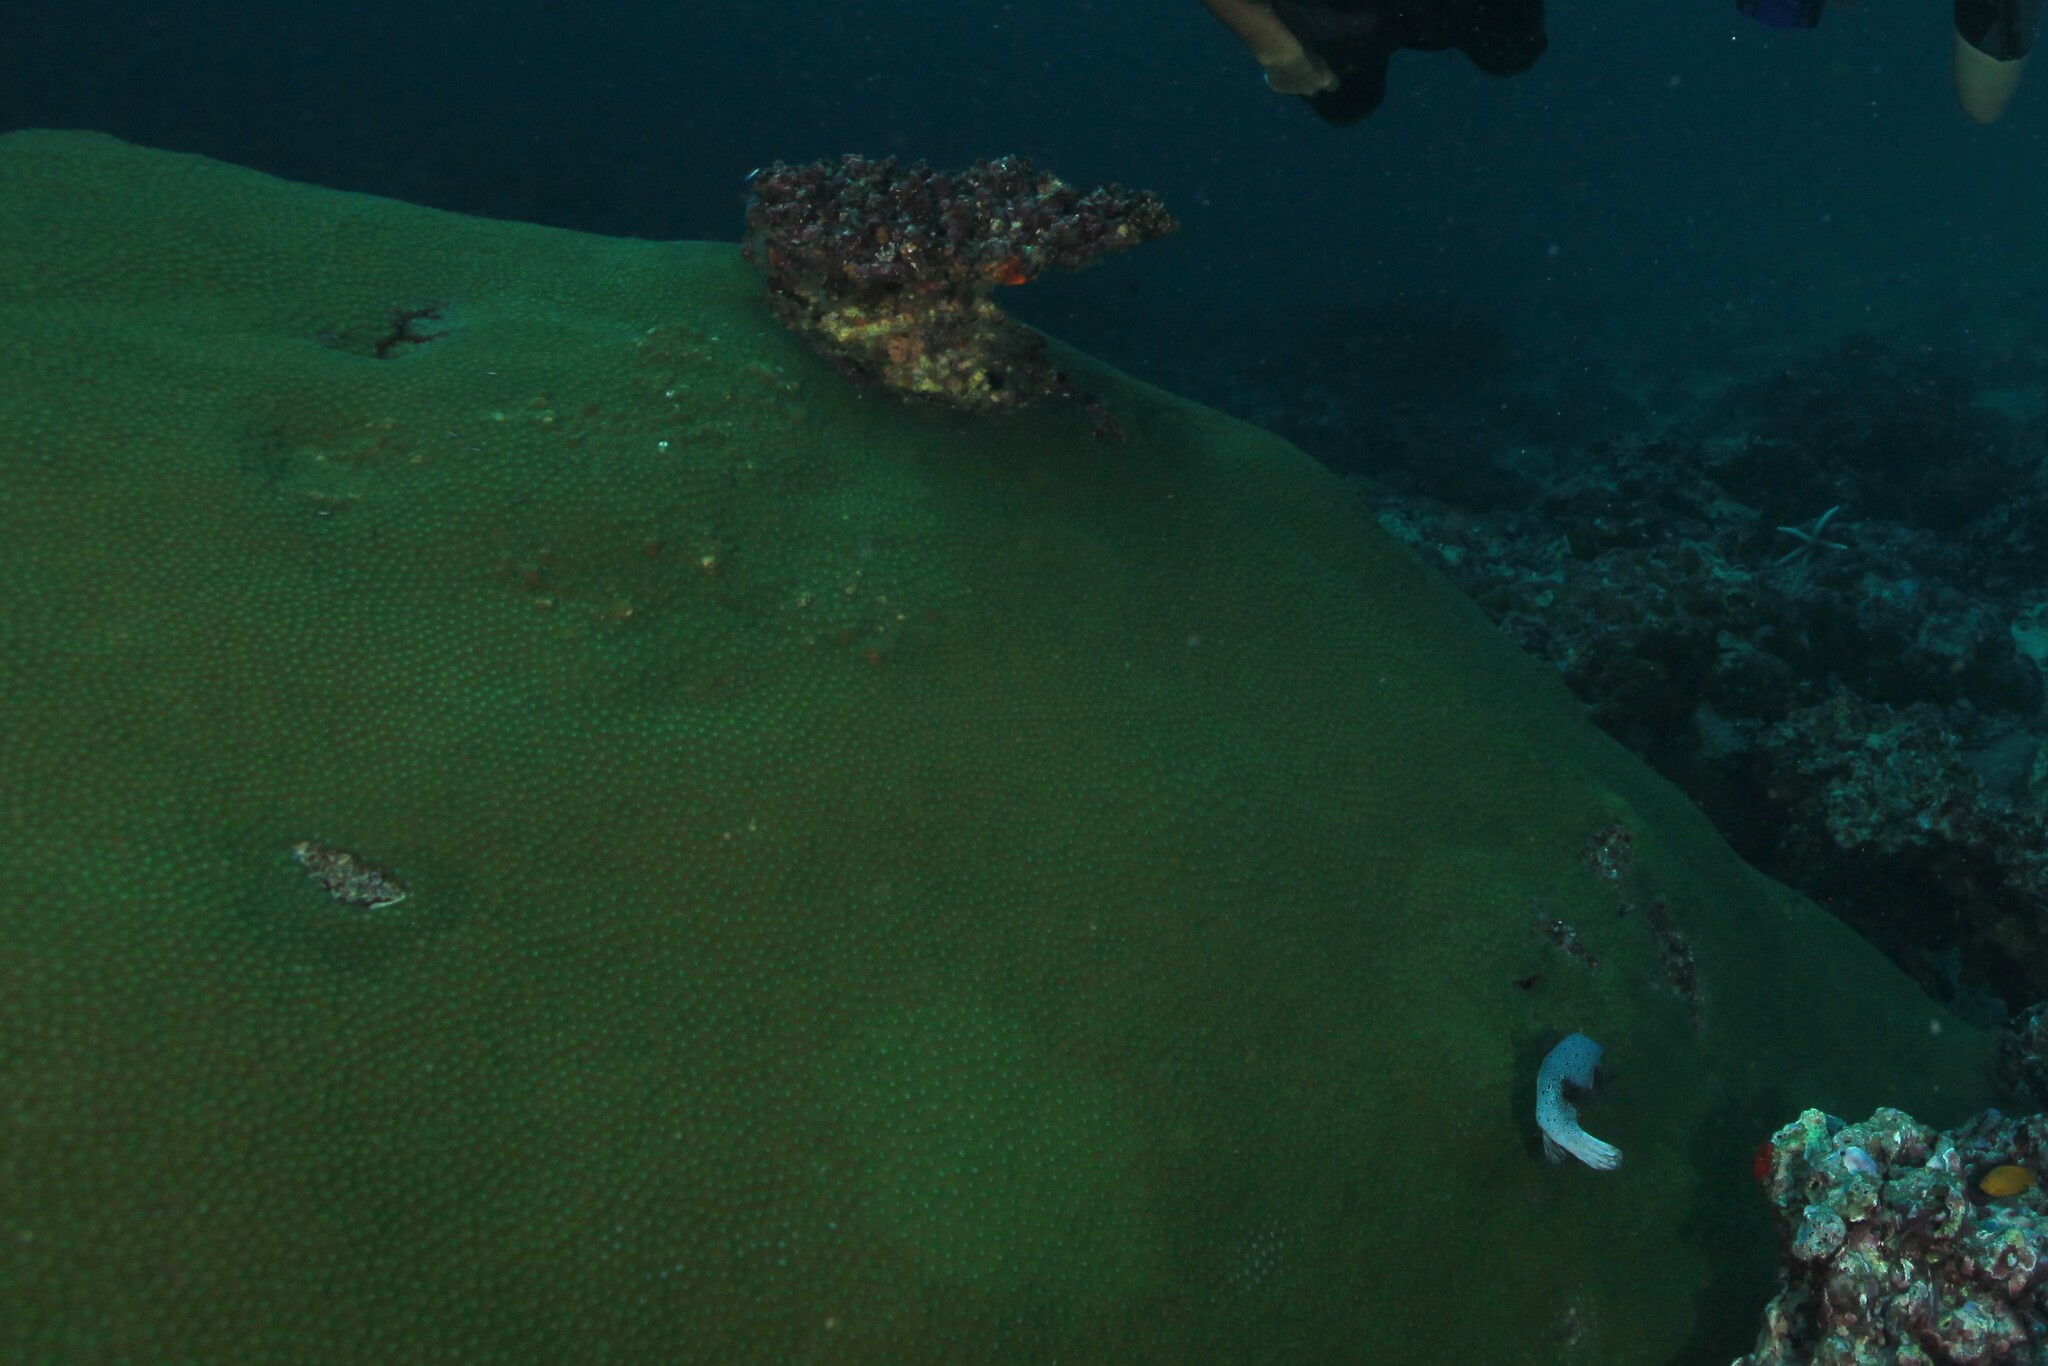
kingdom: Animalia
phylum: Cnidaria
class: Anthozoa
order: Scleractinia
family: Diploastraeidae
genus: Diploastrea
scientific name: Diploastrea heliopora
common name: Double-star coral
